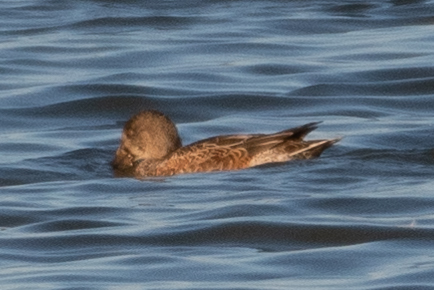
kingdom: Animalia
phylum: Chordata
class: Aves
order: Anseriformes
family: Anatidae
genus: Spatula
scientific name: Spatula clypeata
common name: Northern shoveler
